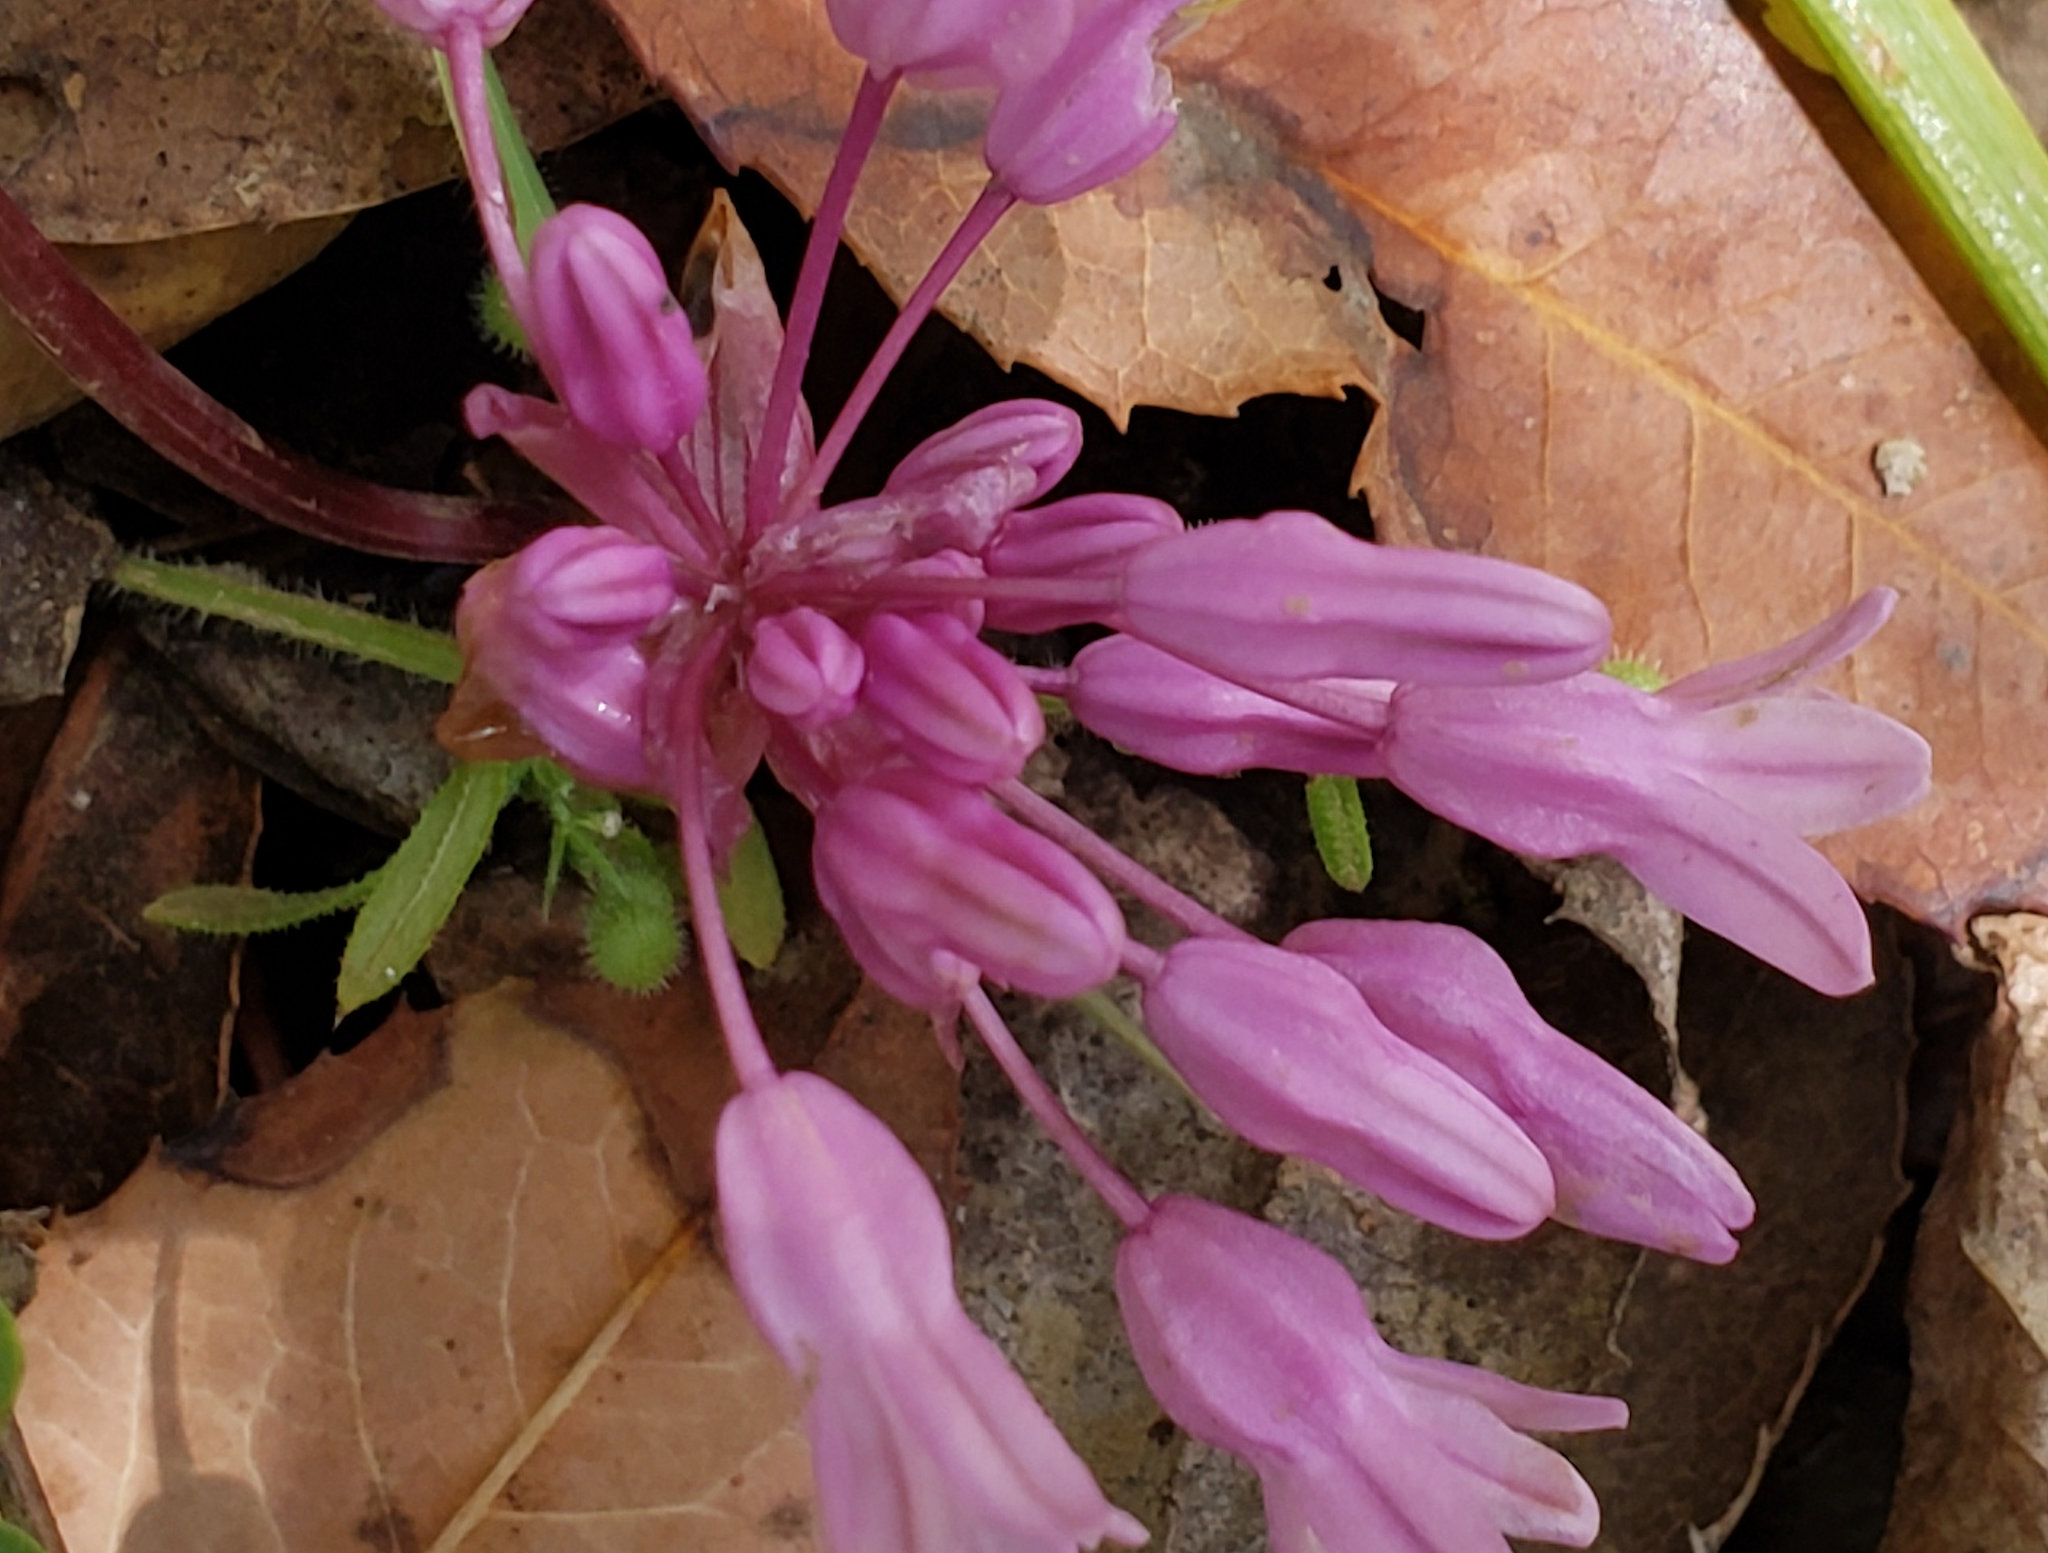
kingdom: Plantae
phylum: Tracheophyta
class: Liliopsida
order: Asparagales
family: Asparagaceae
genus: Dichelostemma
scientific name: Dichelostemma volubile
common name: Trining brodiaea
